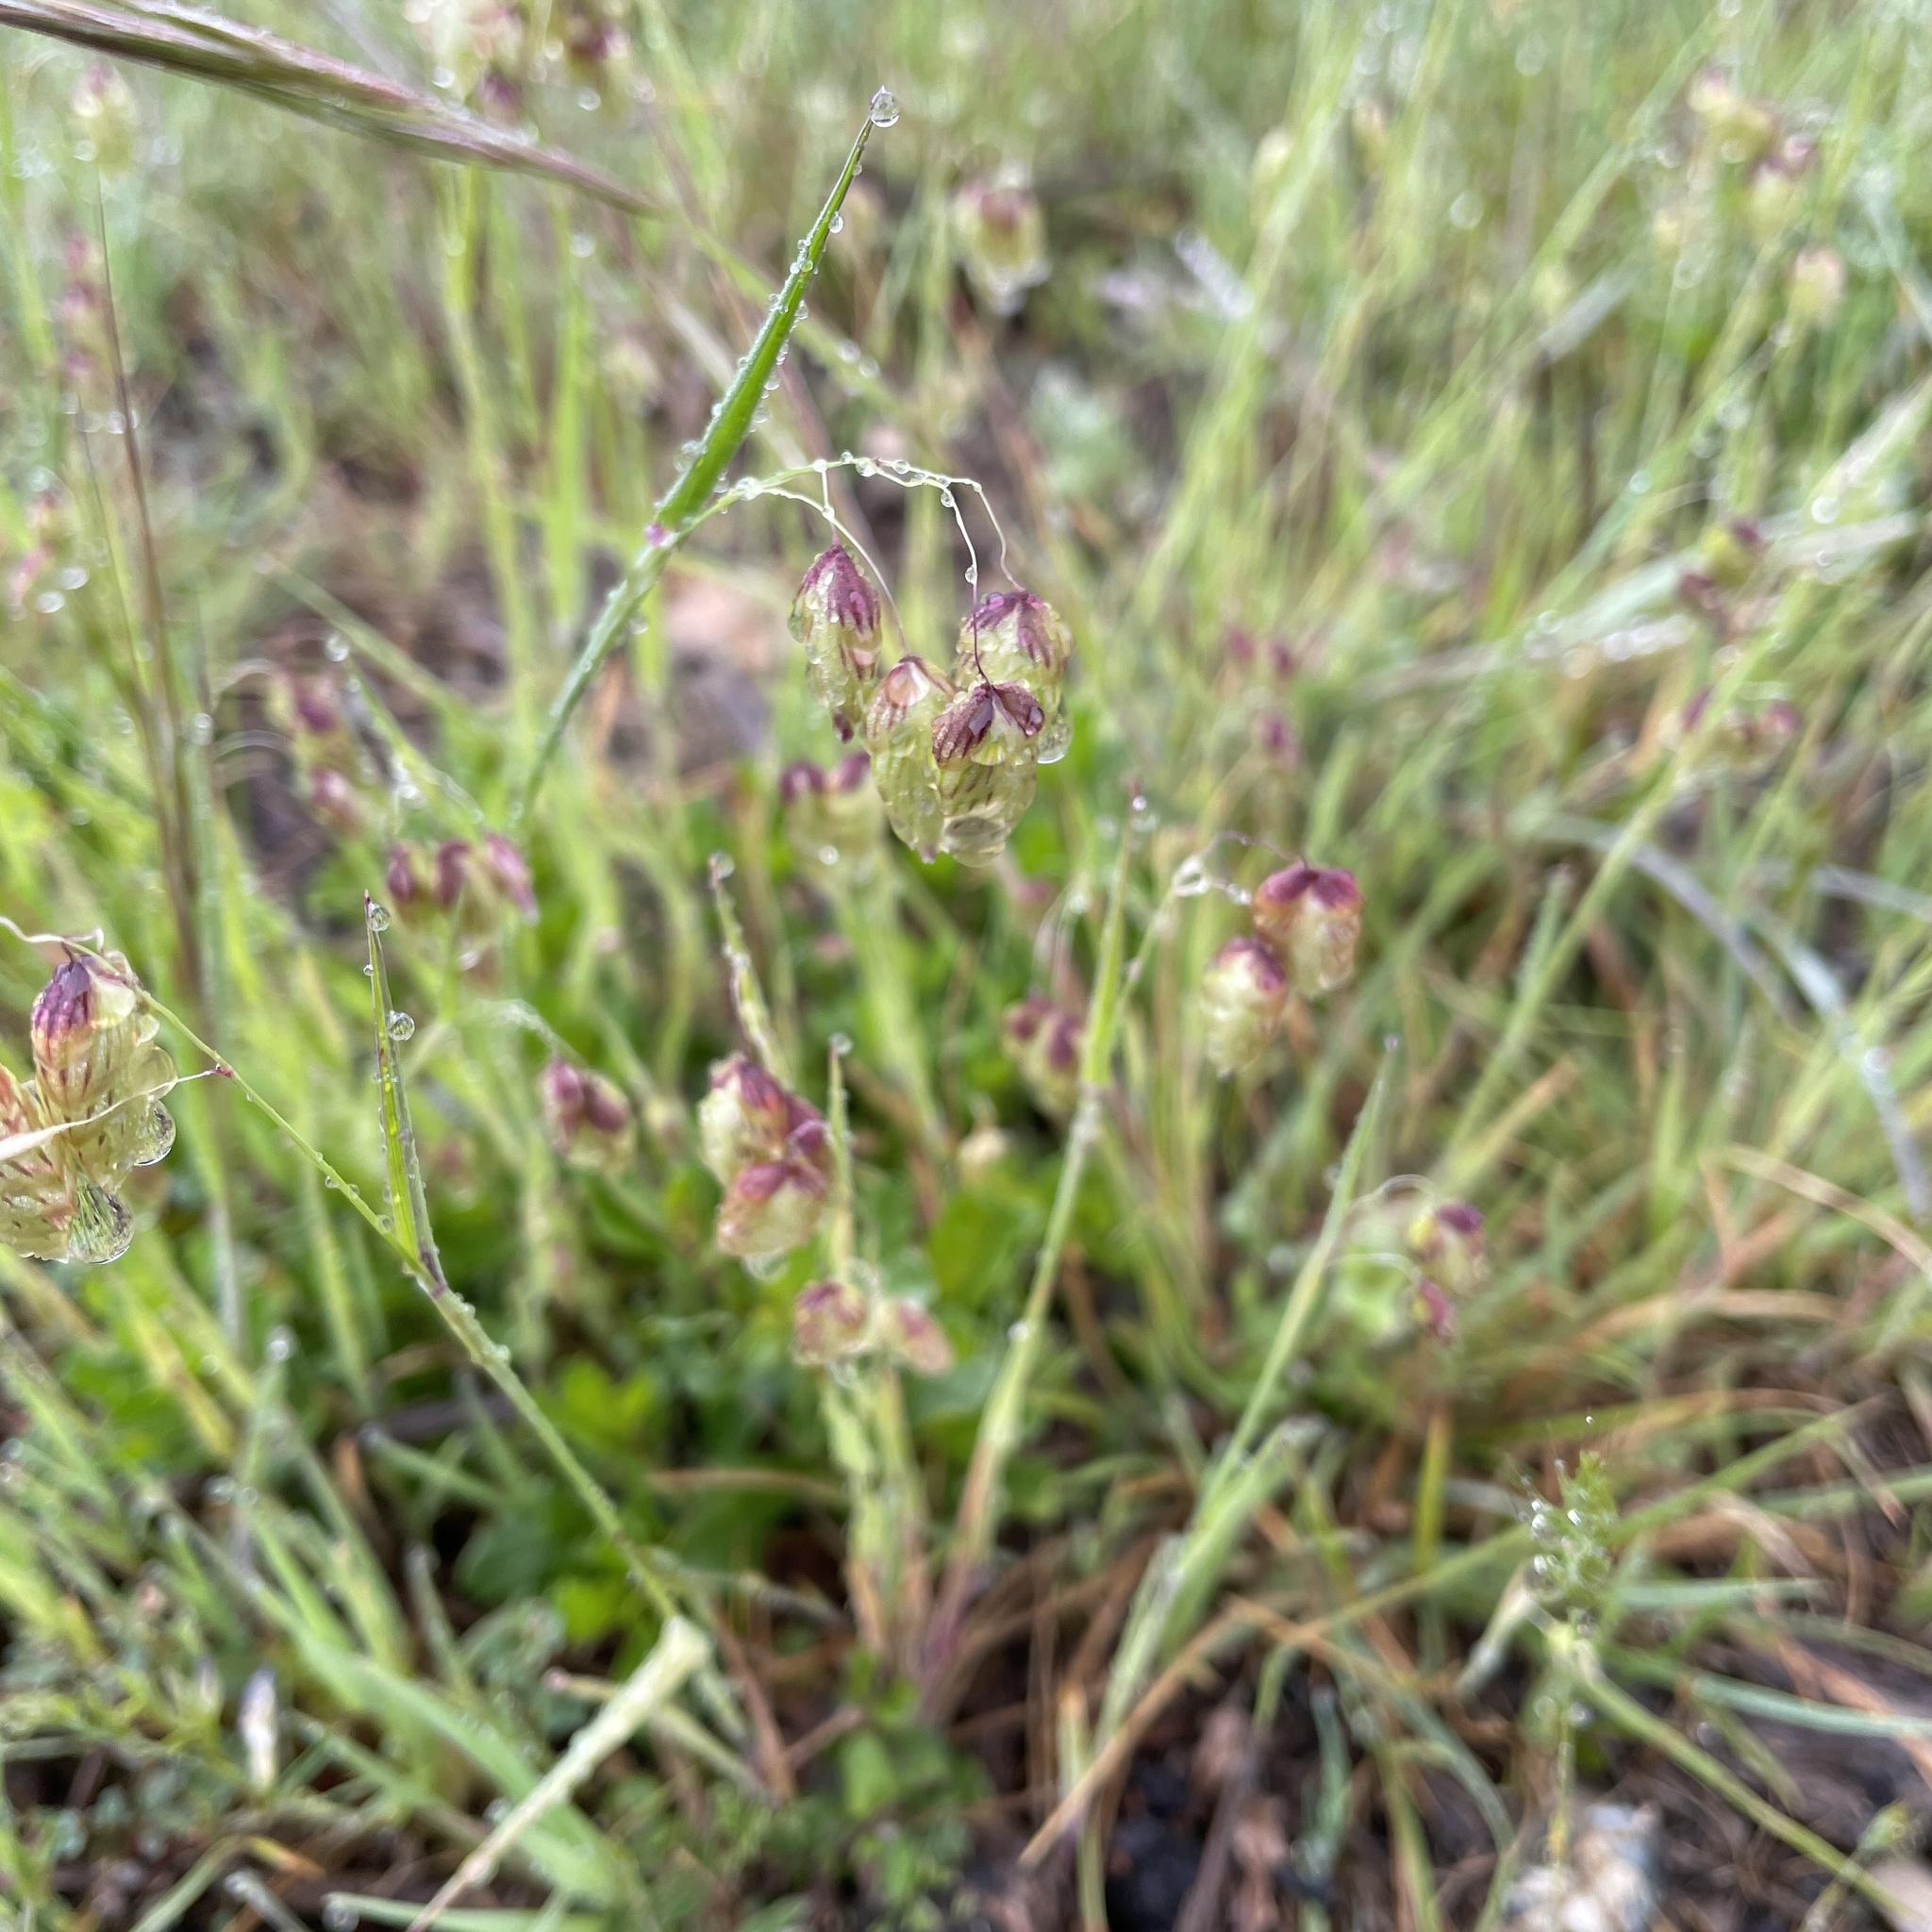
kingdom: Plantae
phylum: Tracheophyta
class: Liliopsida
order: Poales
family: Poaceae
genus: Briza
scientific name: Briza maxima
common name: Big quakinggrass
